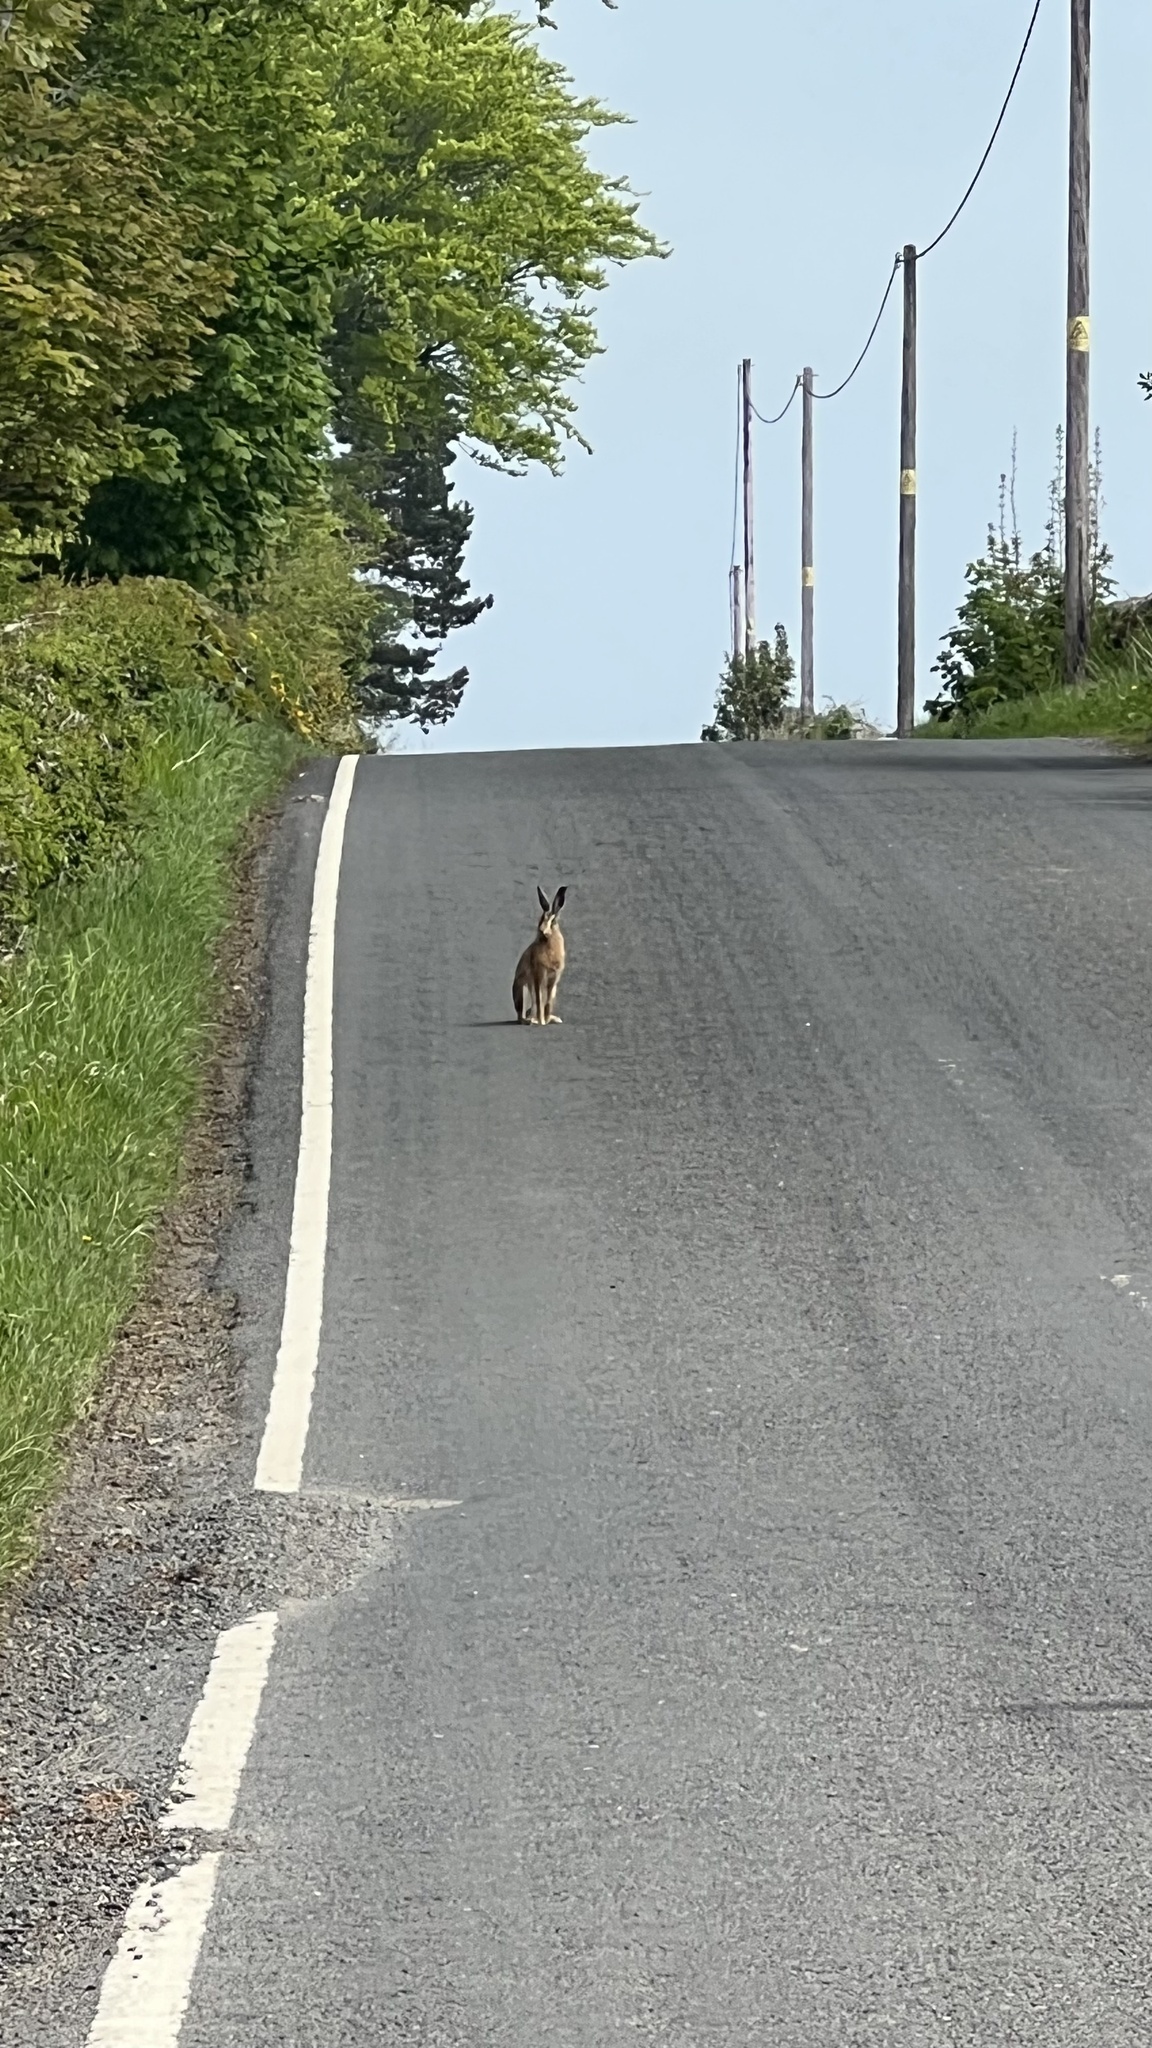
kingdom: Animalia
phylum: Chordata
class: Mammalia
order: Lagomorpha
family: Leporidae
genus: Lepus
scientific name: Lepus europaeus
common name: European hare
